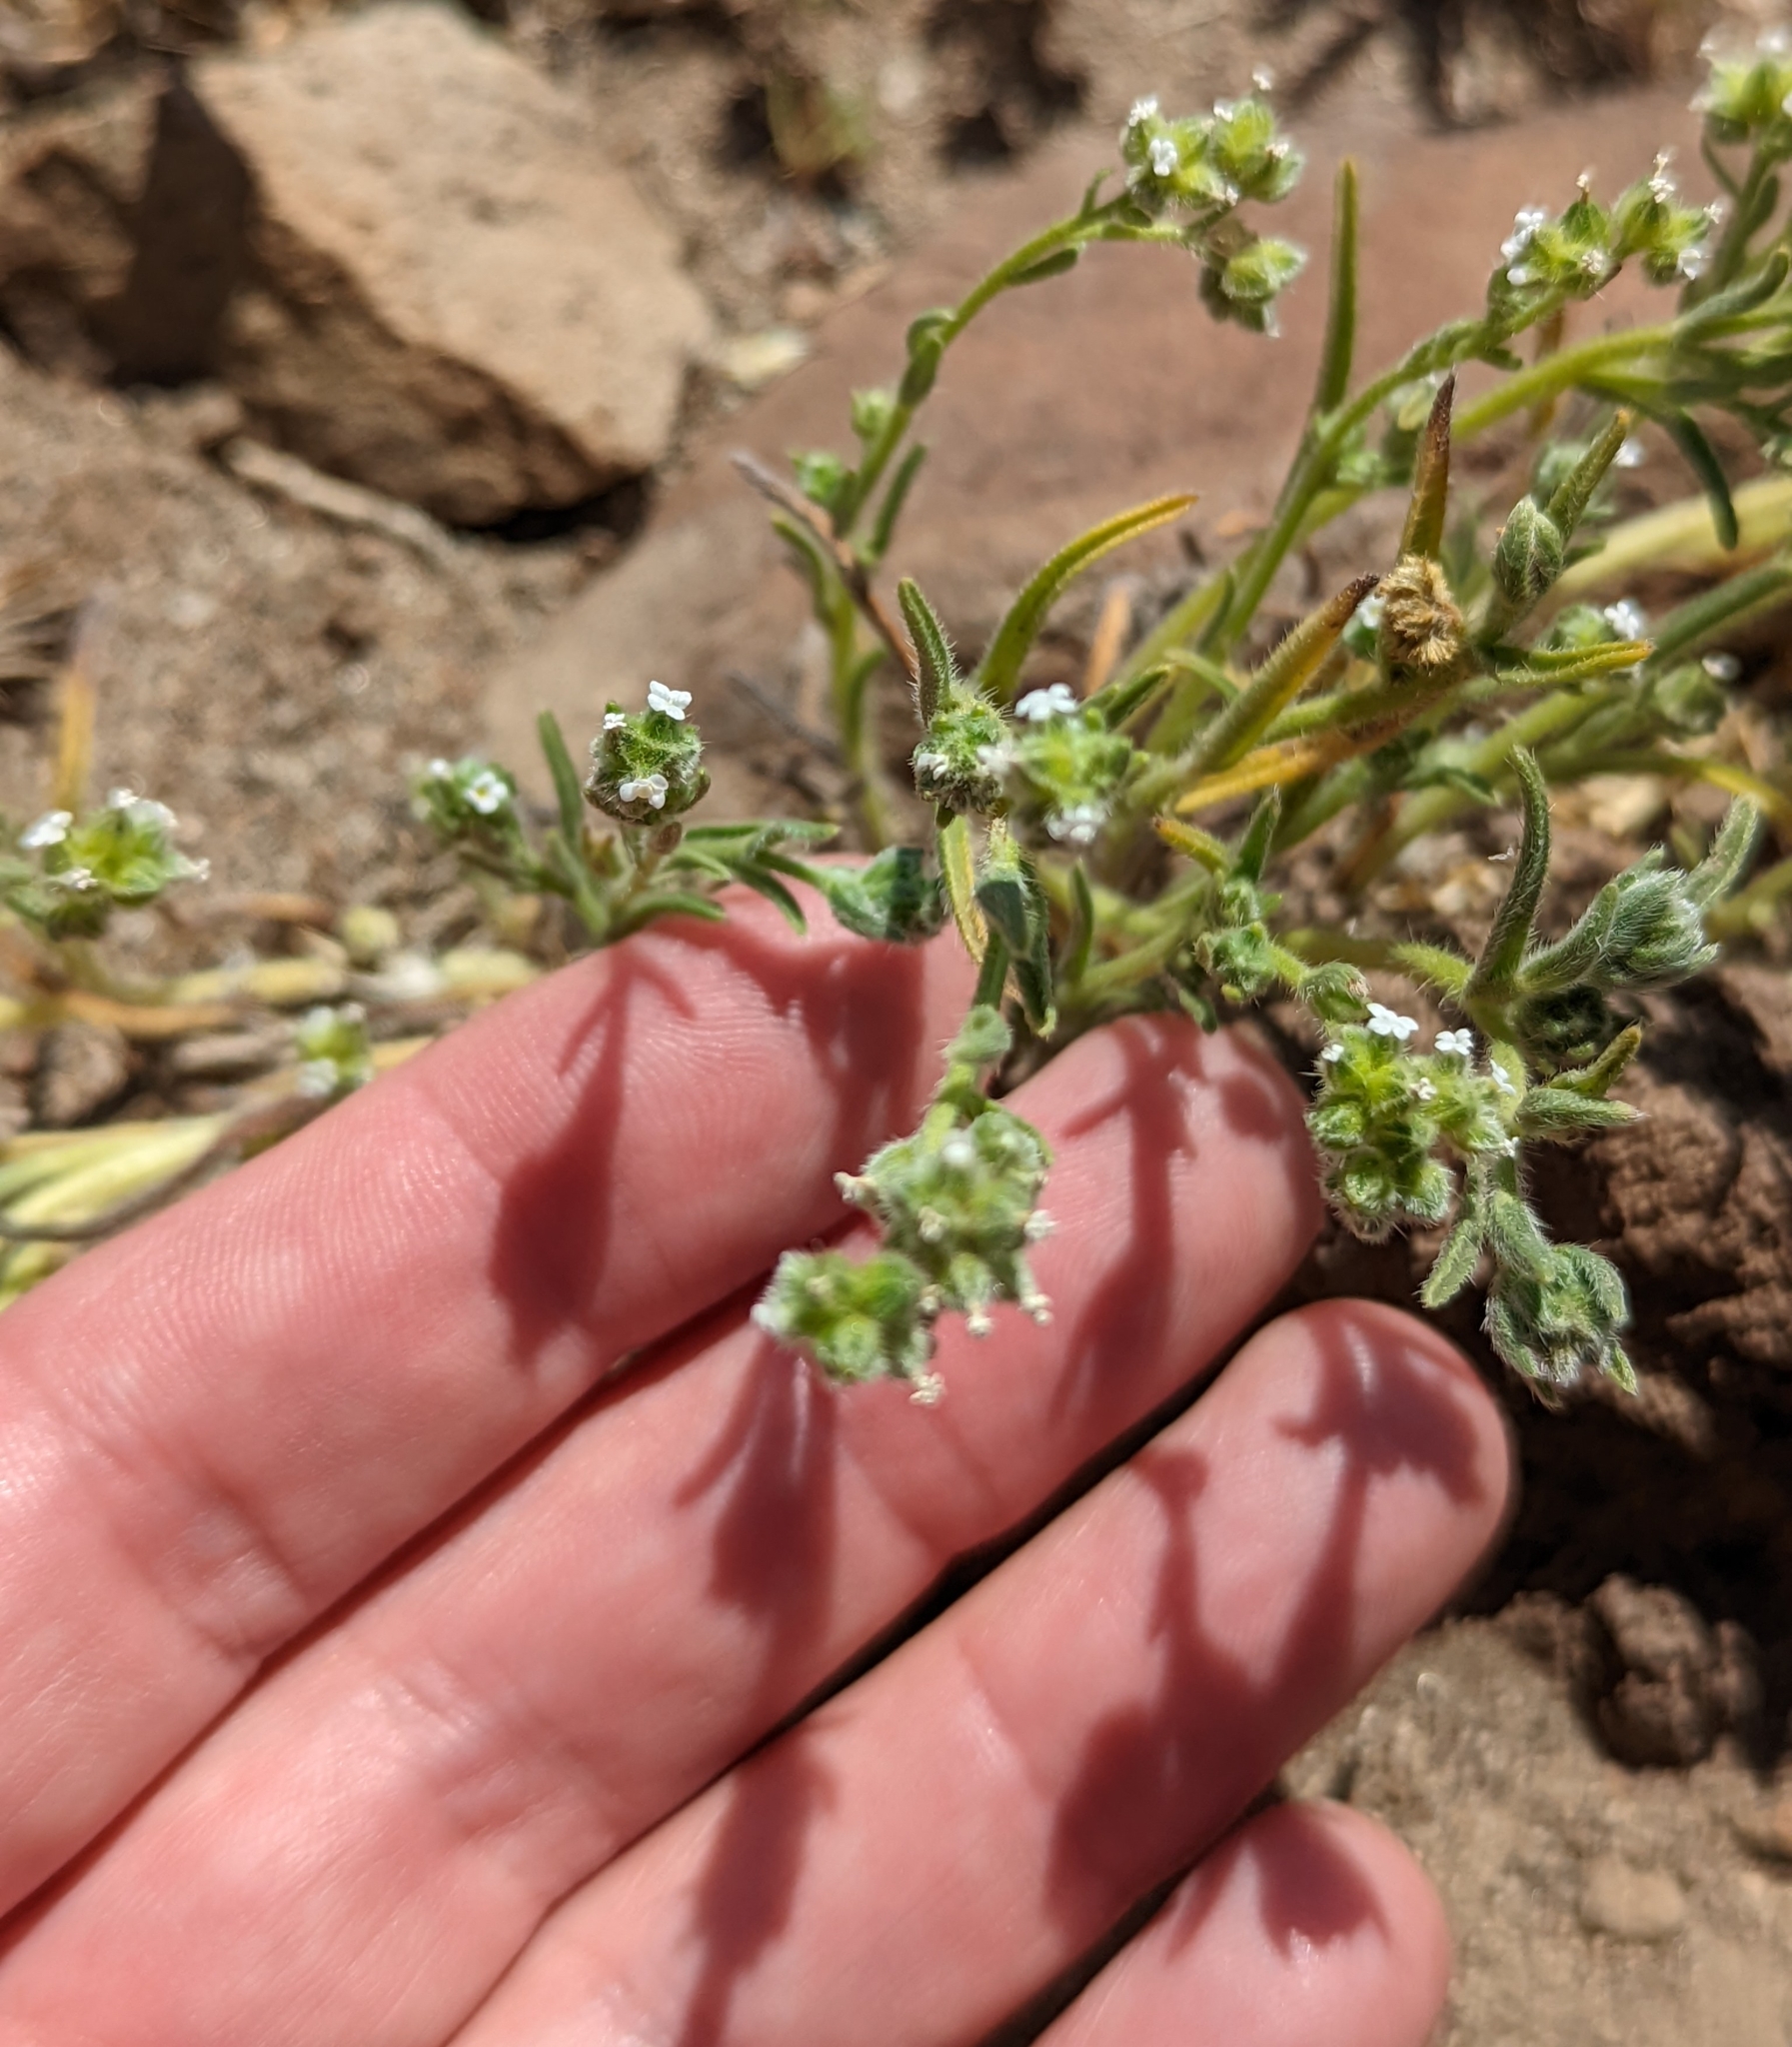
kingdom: Plantae
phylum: Tracheophyta
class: Magnoliopsida
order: Boraginales
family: Boraginaceae
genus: Cryptantha
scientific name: Cryptantha pterocarya
